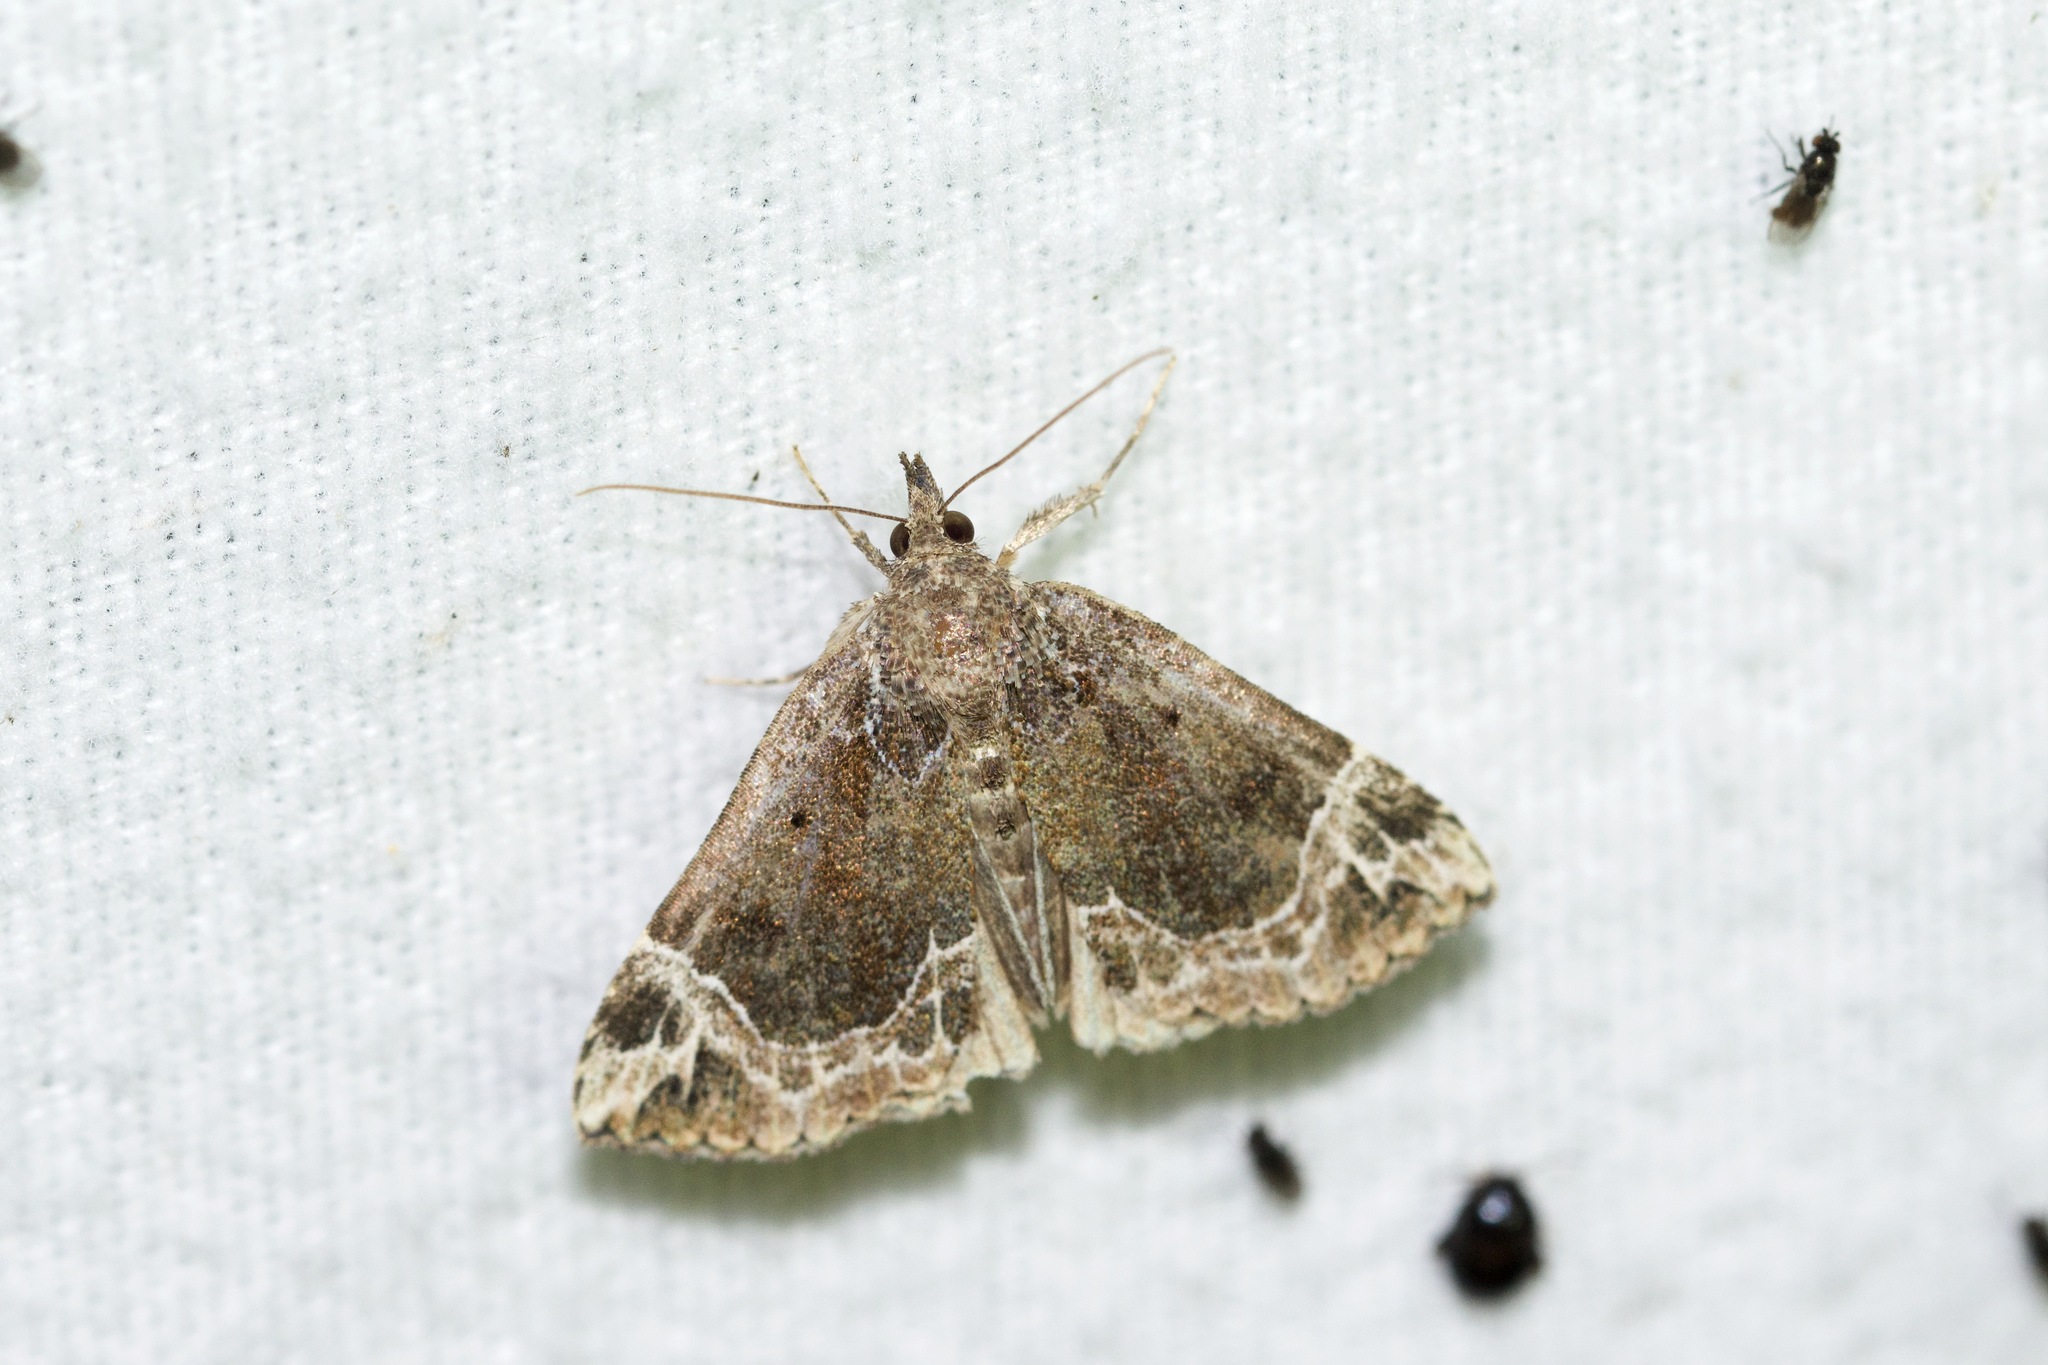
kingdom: Animalia
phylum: Arthropoda
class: Insecta
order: Lepidoptera
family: Erebidae
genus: Hypena
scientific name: Hypena abalienalis
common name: White-lined snout
